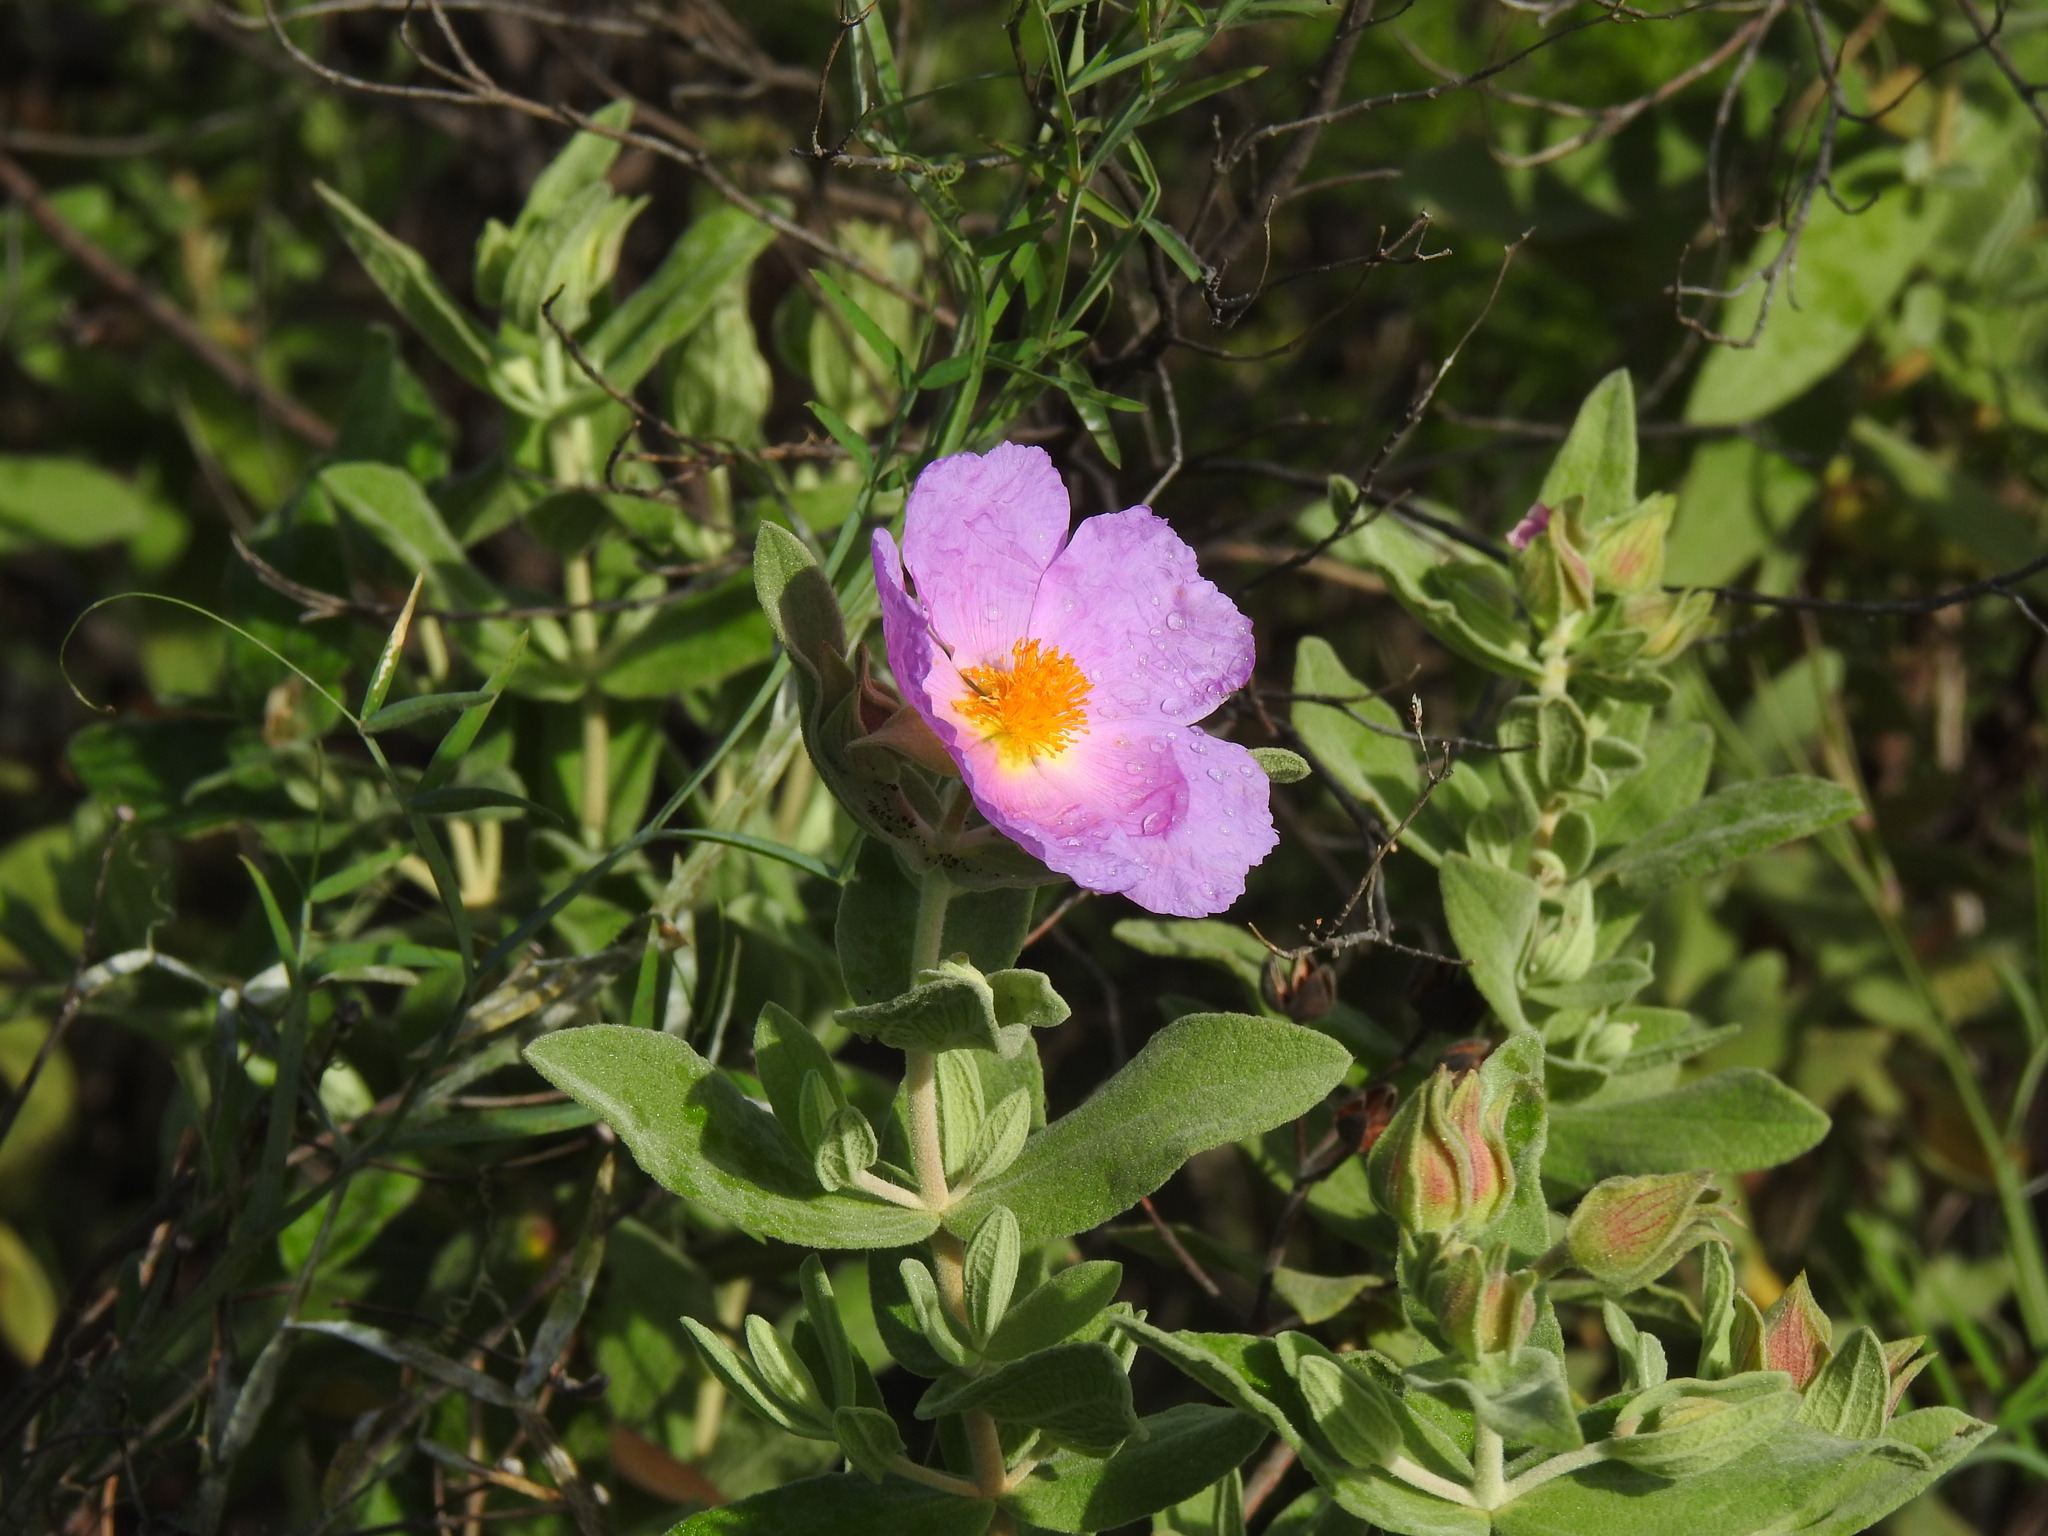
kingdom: Plantae
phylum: Tracheophyta
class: Magnoliopsida
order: Malvales
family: Cistaceae
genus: Cistus
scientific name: Cistus albidus
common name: White-leaf rock-rose
